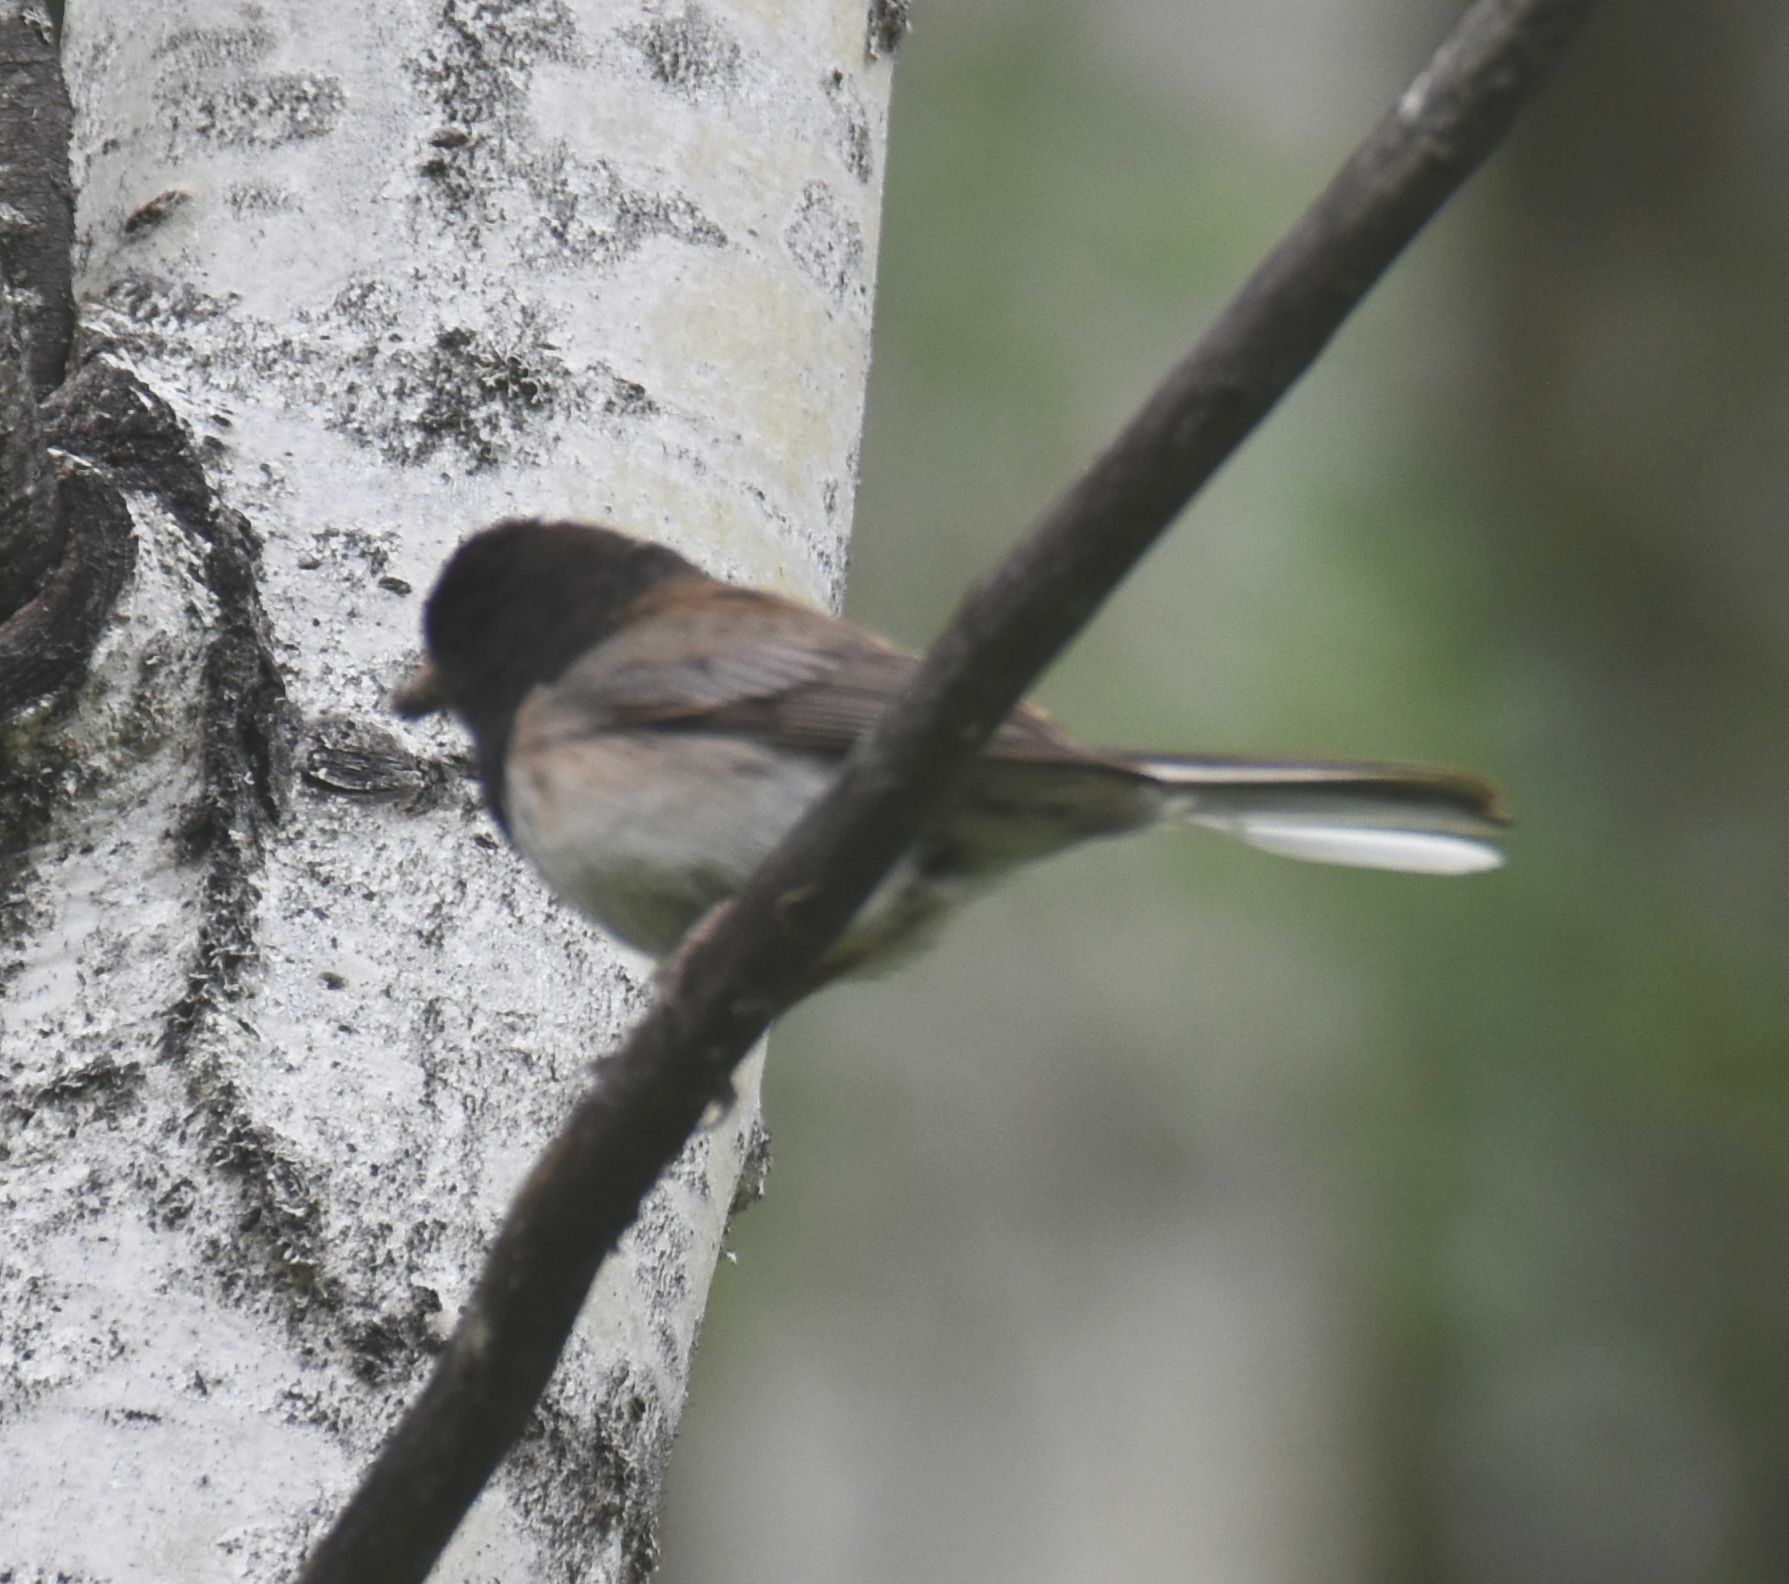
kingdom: Animalia
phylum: Chordata
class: Aves
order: Passeriformes
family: Passerellidae
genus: Junco
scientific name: Junco hyemalis
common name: Dark-eyed junco
